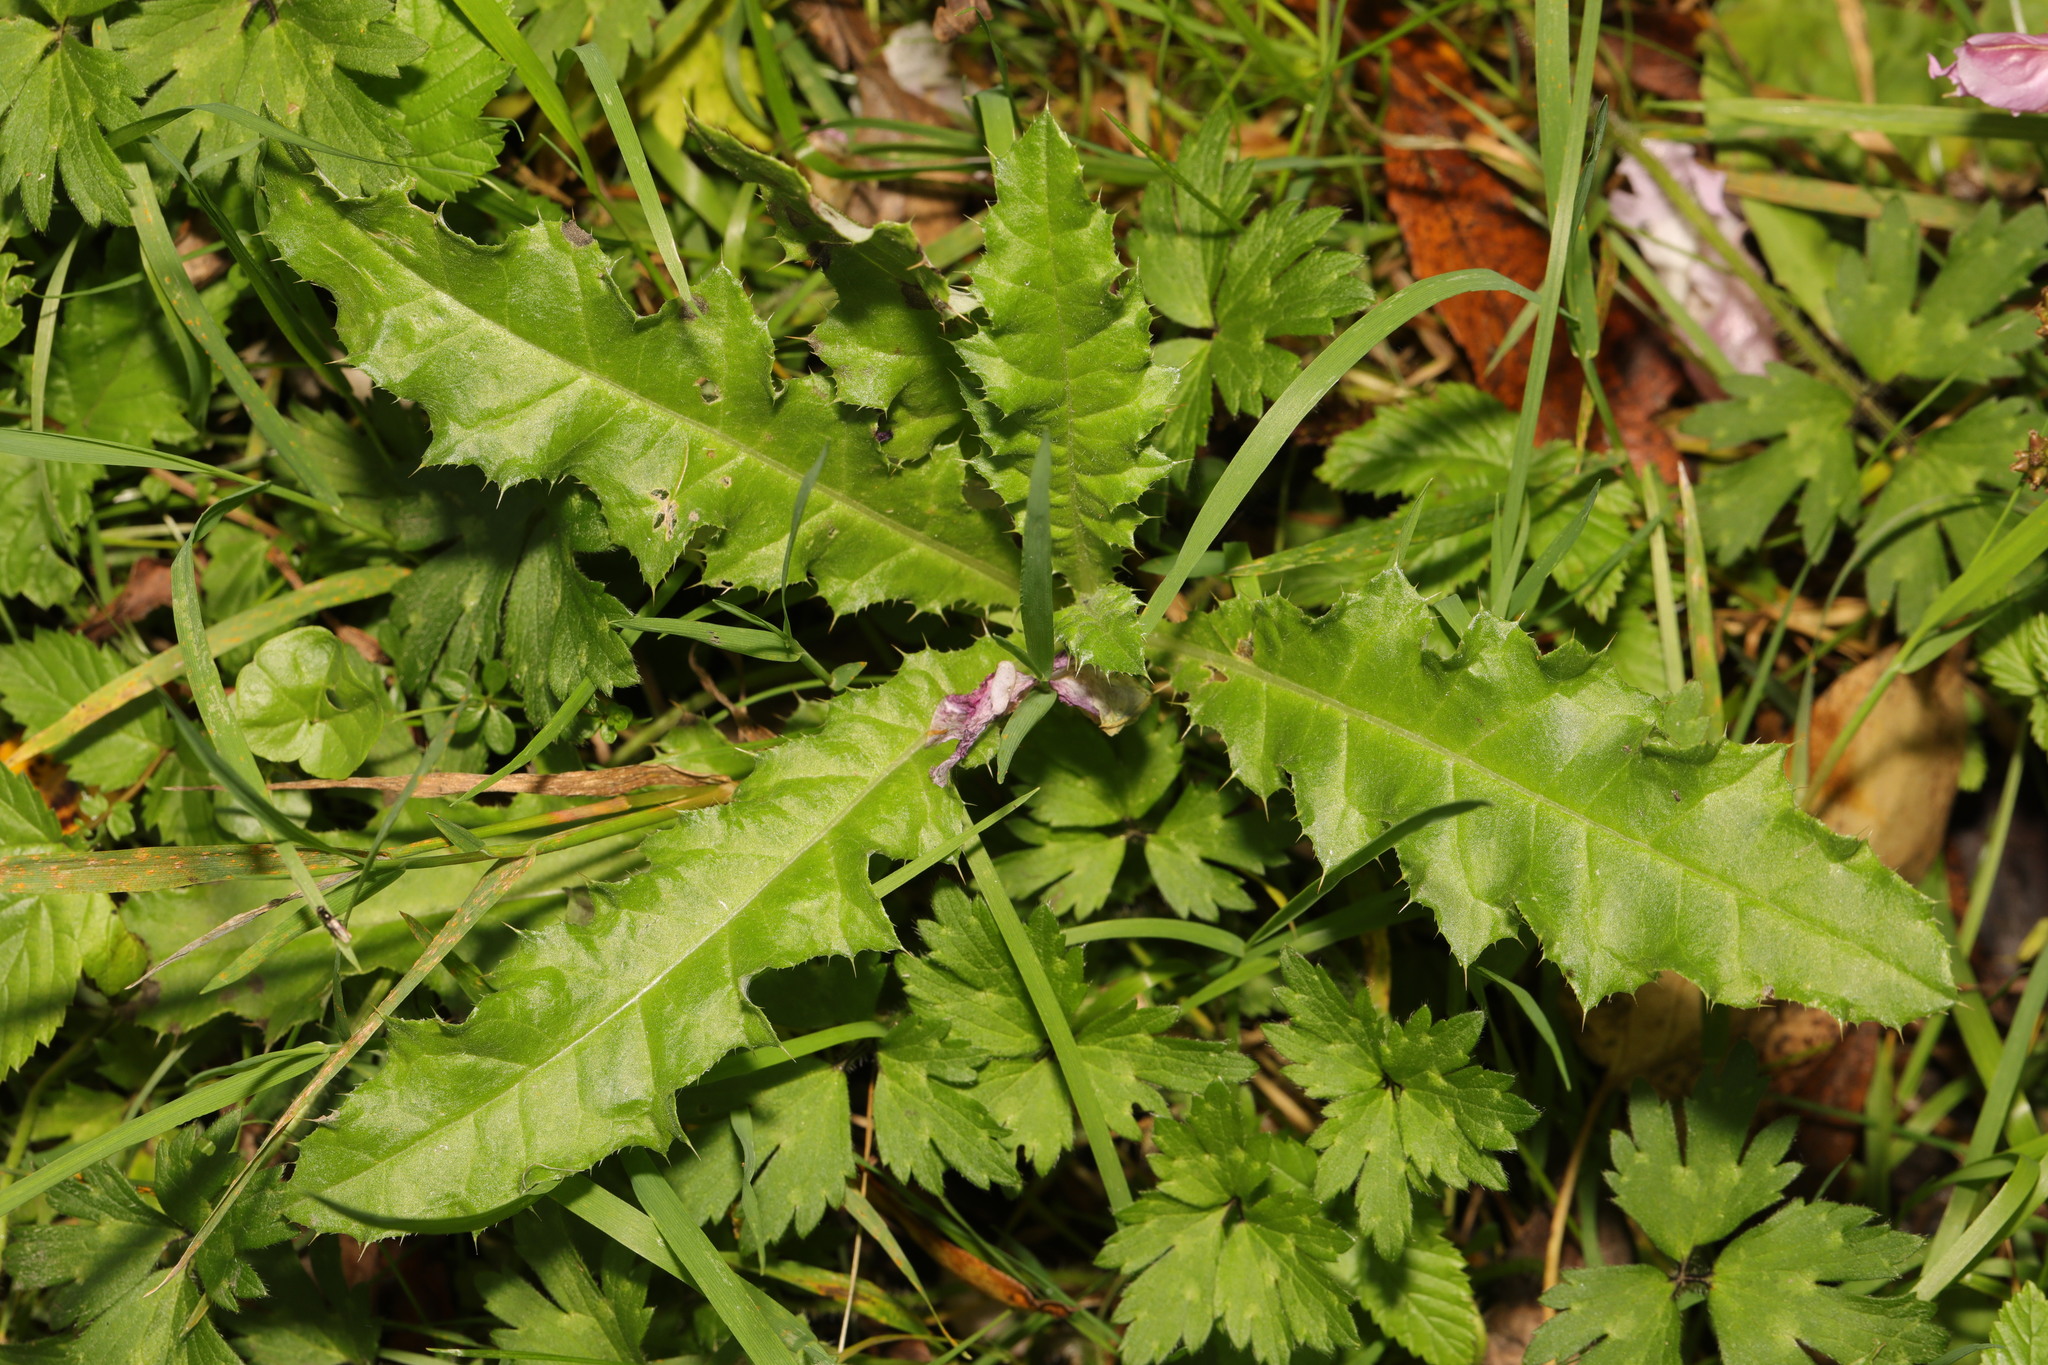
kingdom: Plantae
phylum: Tracheophyta
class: Magnoliopsida
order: Asterales
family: Asteraceae
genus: Cirsium
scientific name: Cirsium arvense
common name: Creeping thistle
